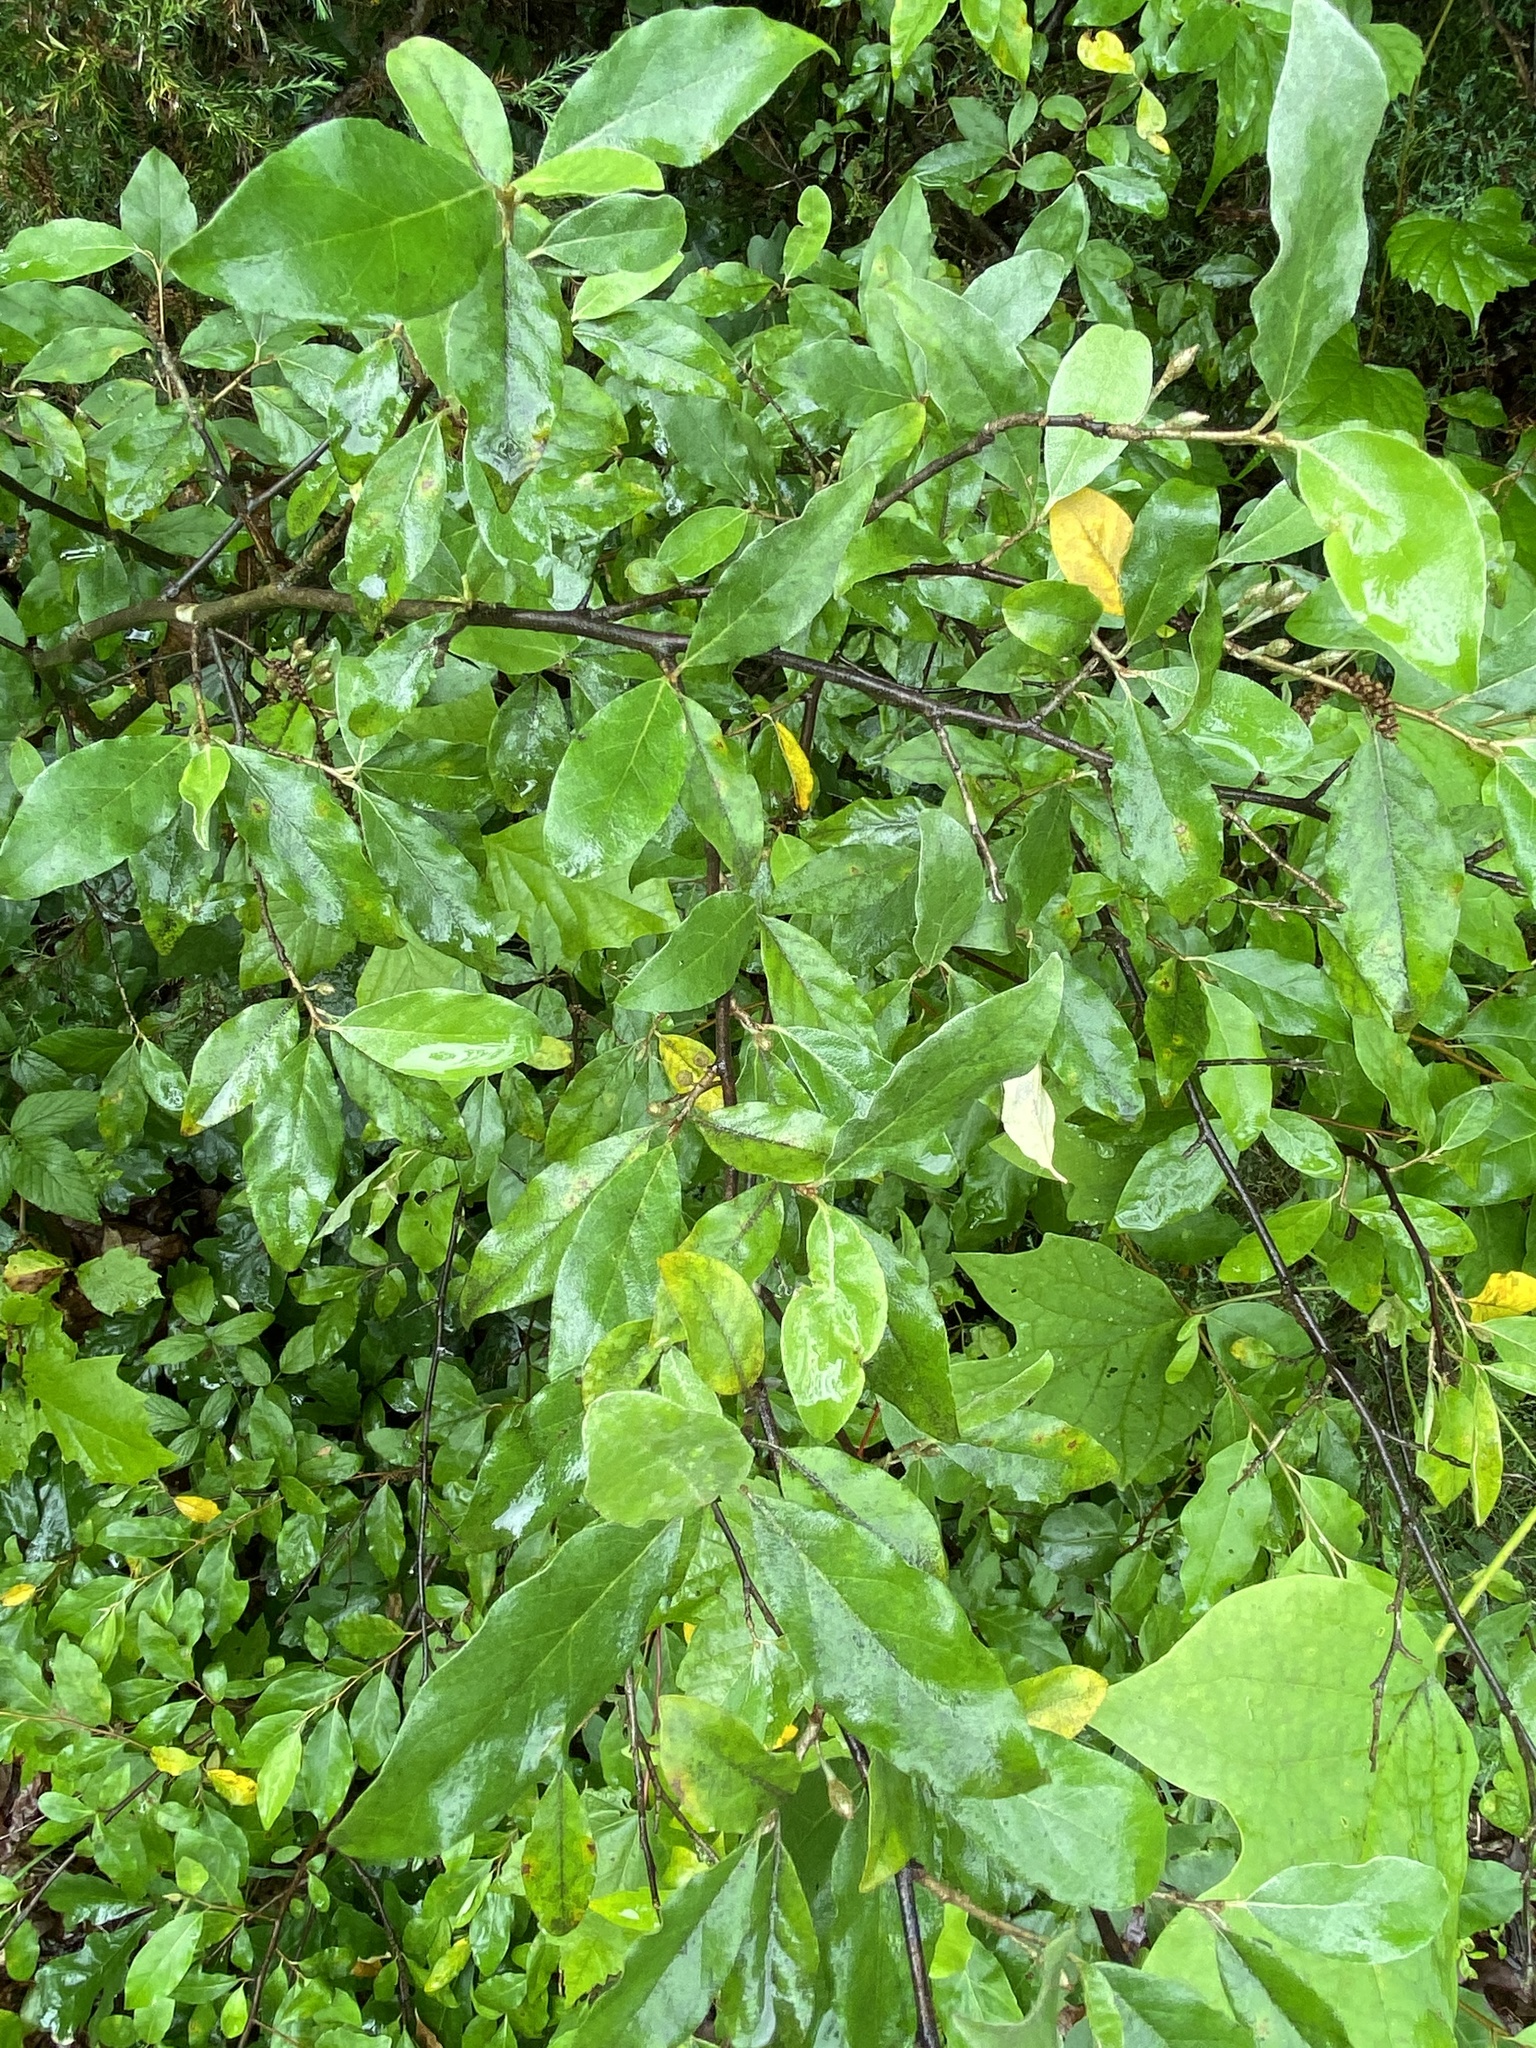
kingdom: Plantae
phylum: Tracheophyta
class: Magnoliopsida
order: Rosales
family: Elaeagnaceae
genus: Elaeagnus
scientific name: Elaeagnus umbellata
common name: Autumn olive
